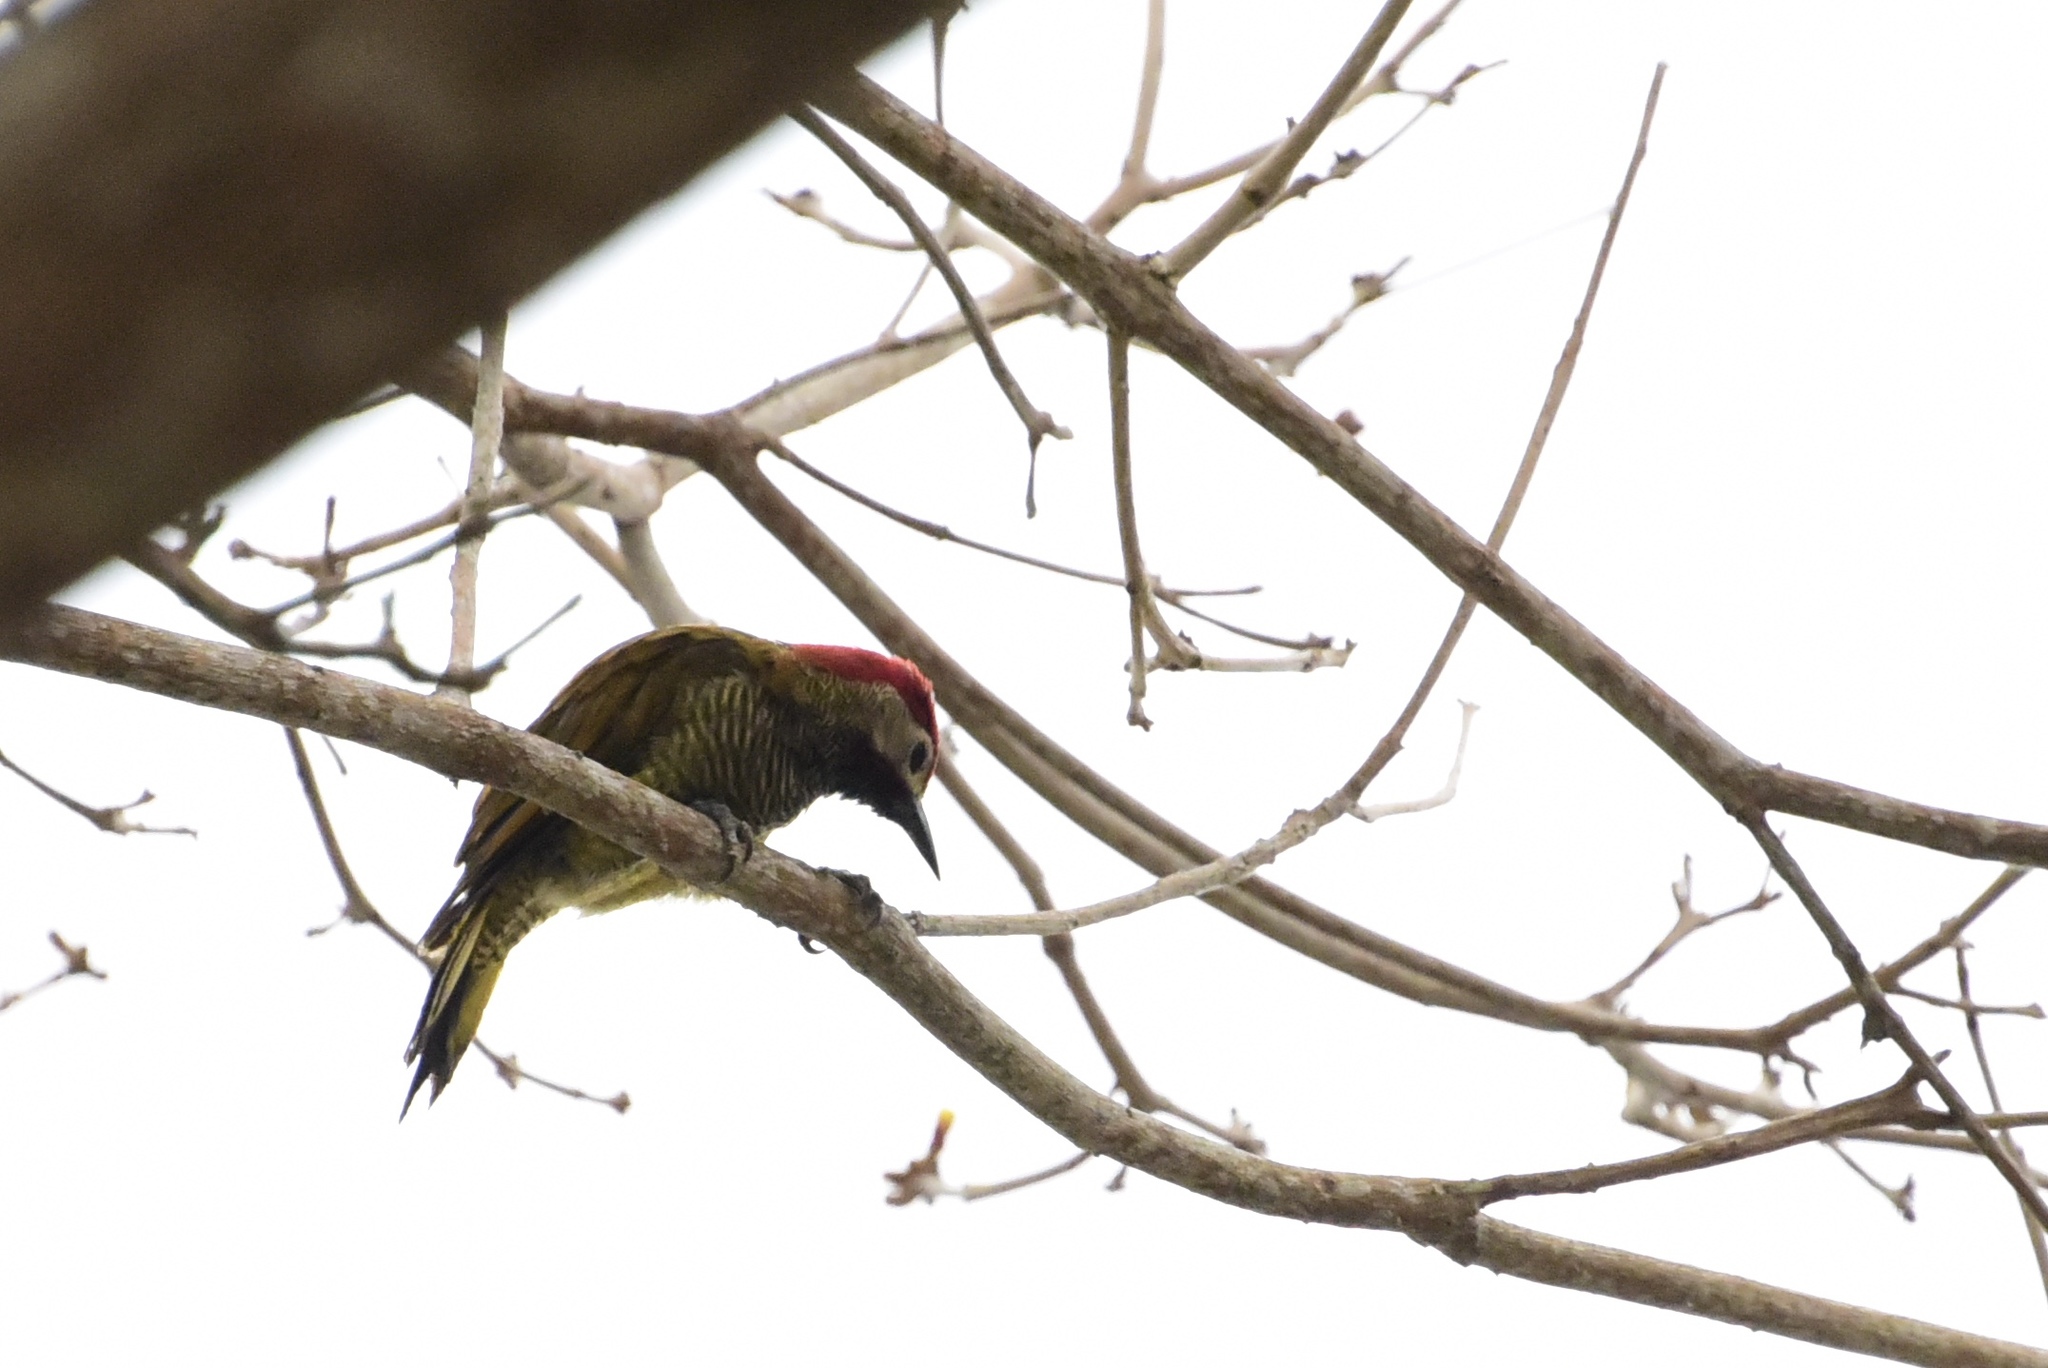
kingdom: Animalia
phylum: Chordata
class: Aves
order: Piciformes
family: Picidae
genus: Colaptes
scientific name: Colaptes rubiginosus
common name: Golden-olive woodpecker
